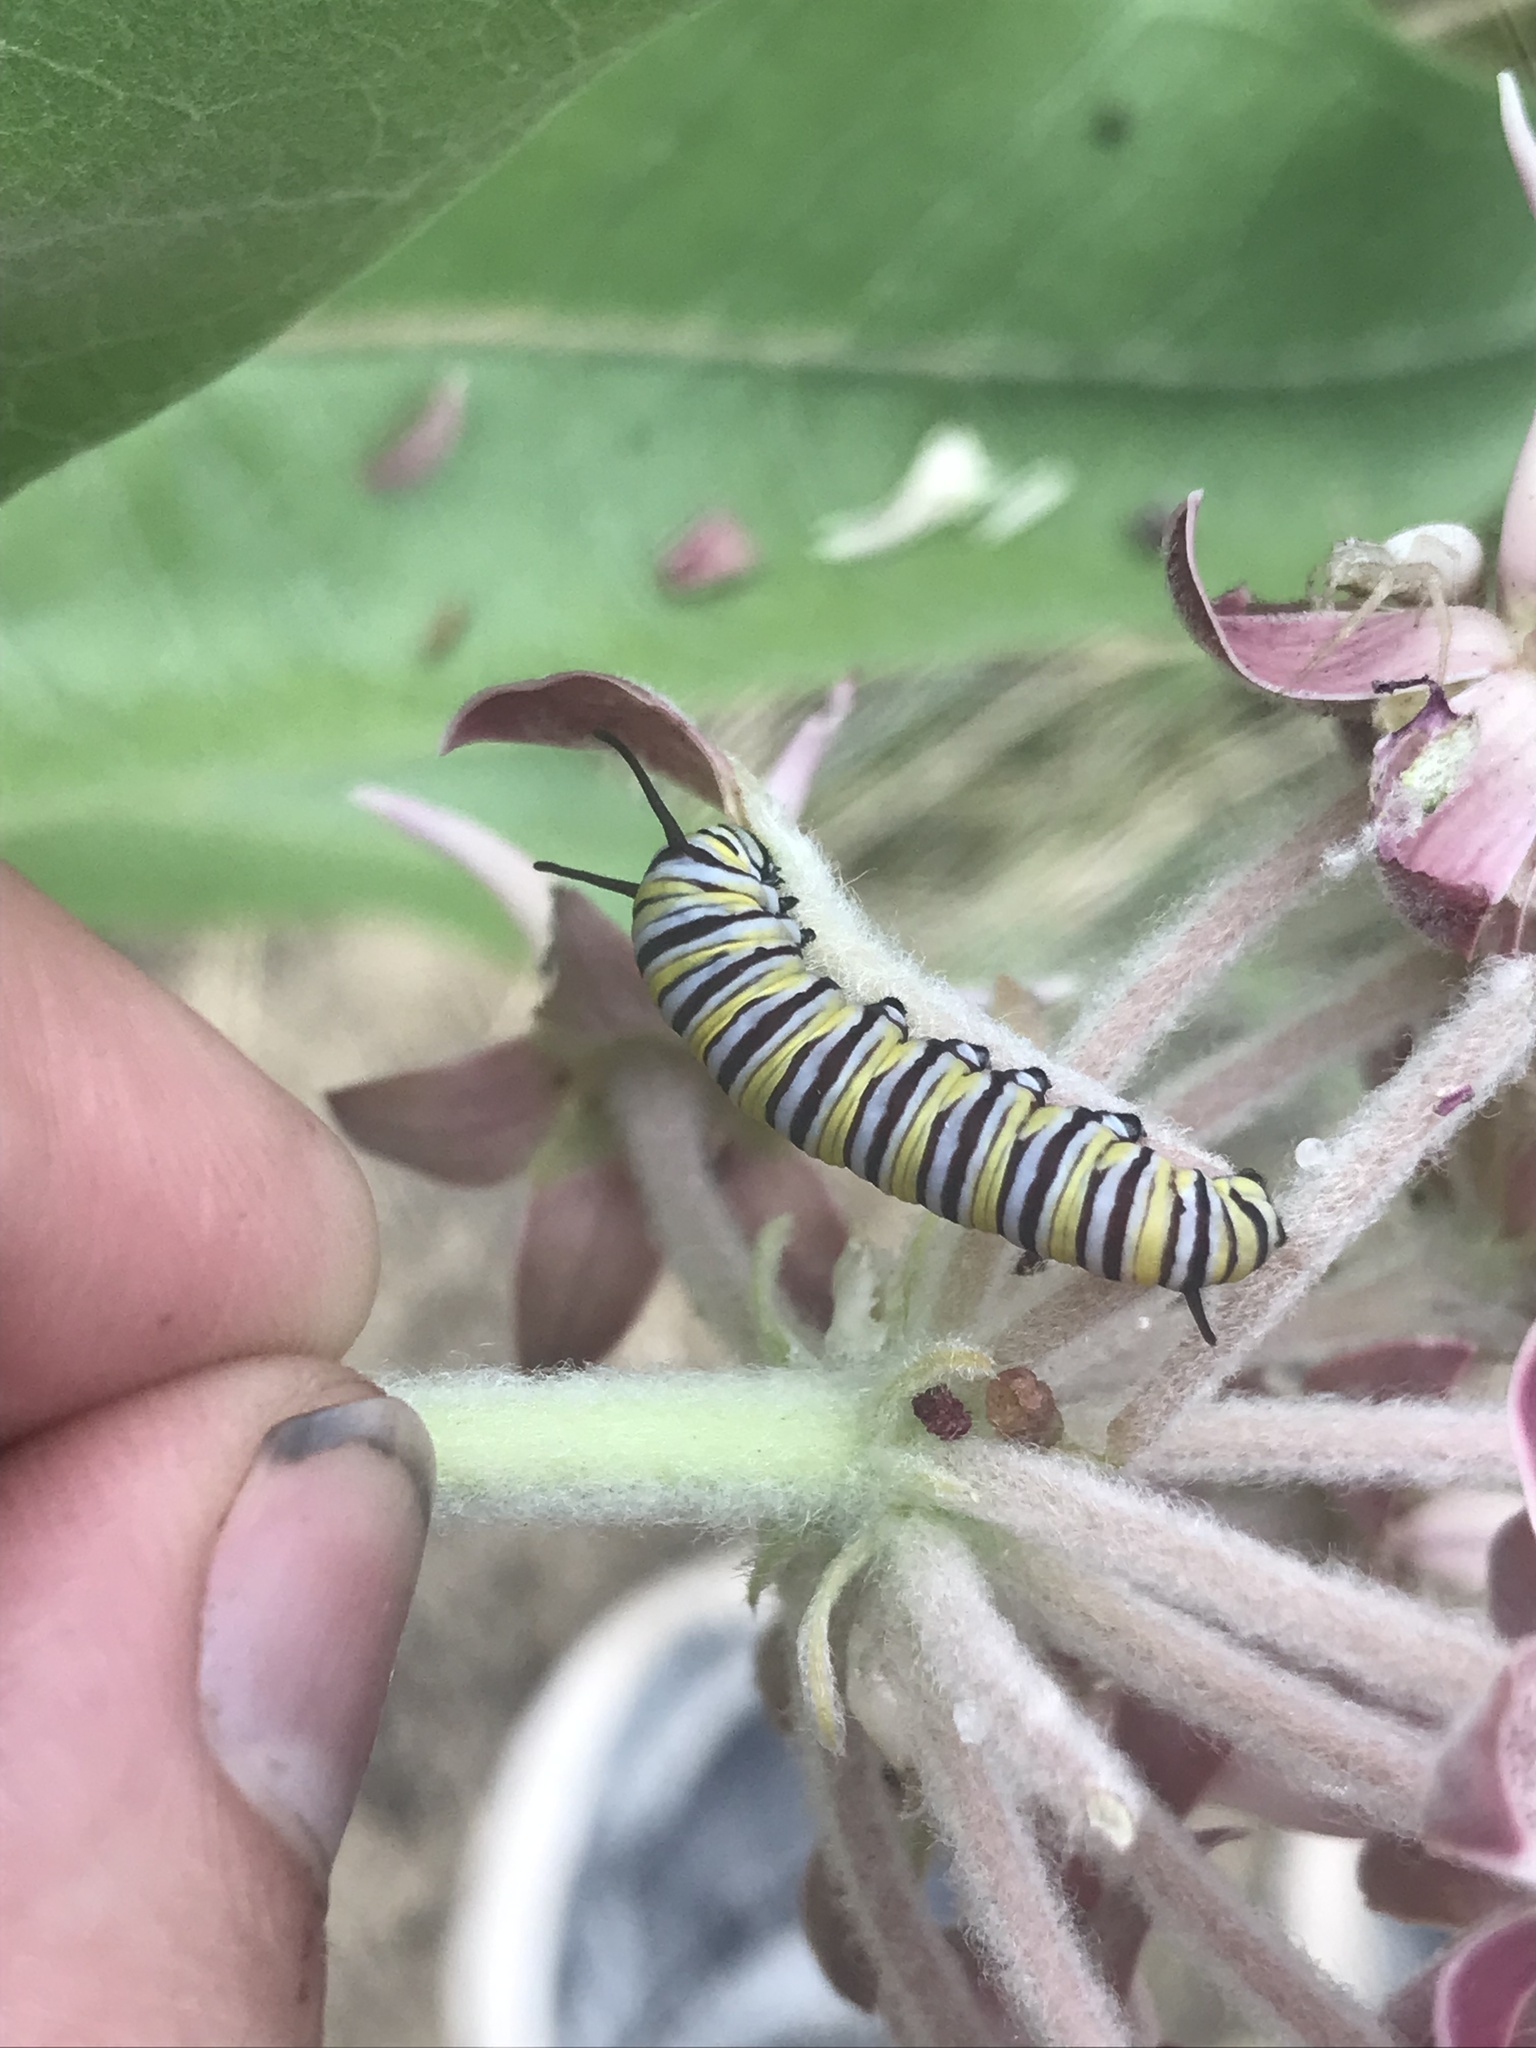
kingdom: Animalia
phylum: Arthropoda
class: Insecta
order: Lepidoptera
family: Nymphalidae
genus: Danaus
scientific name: Danaus plexippus
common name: Monarch
